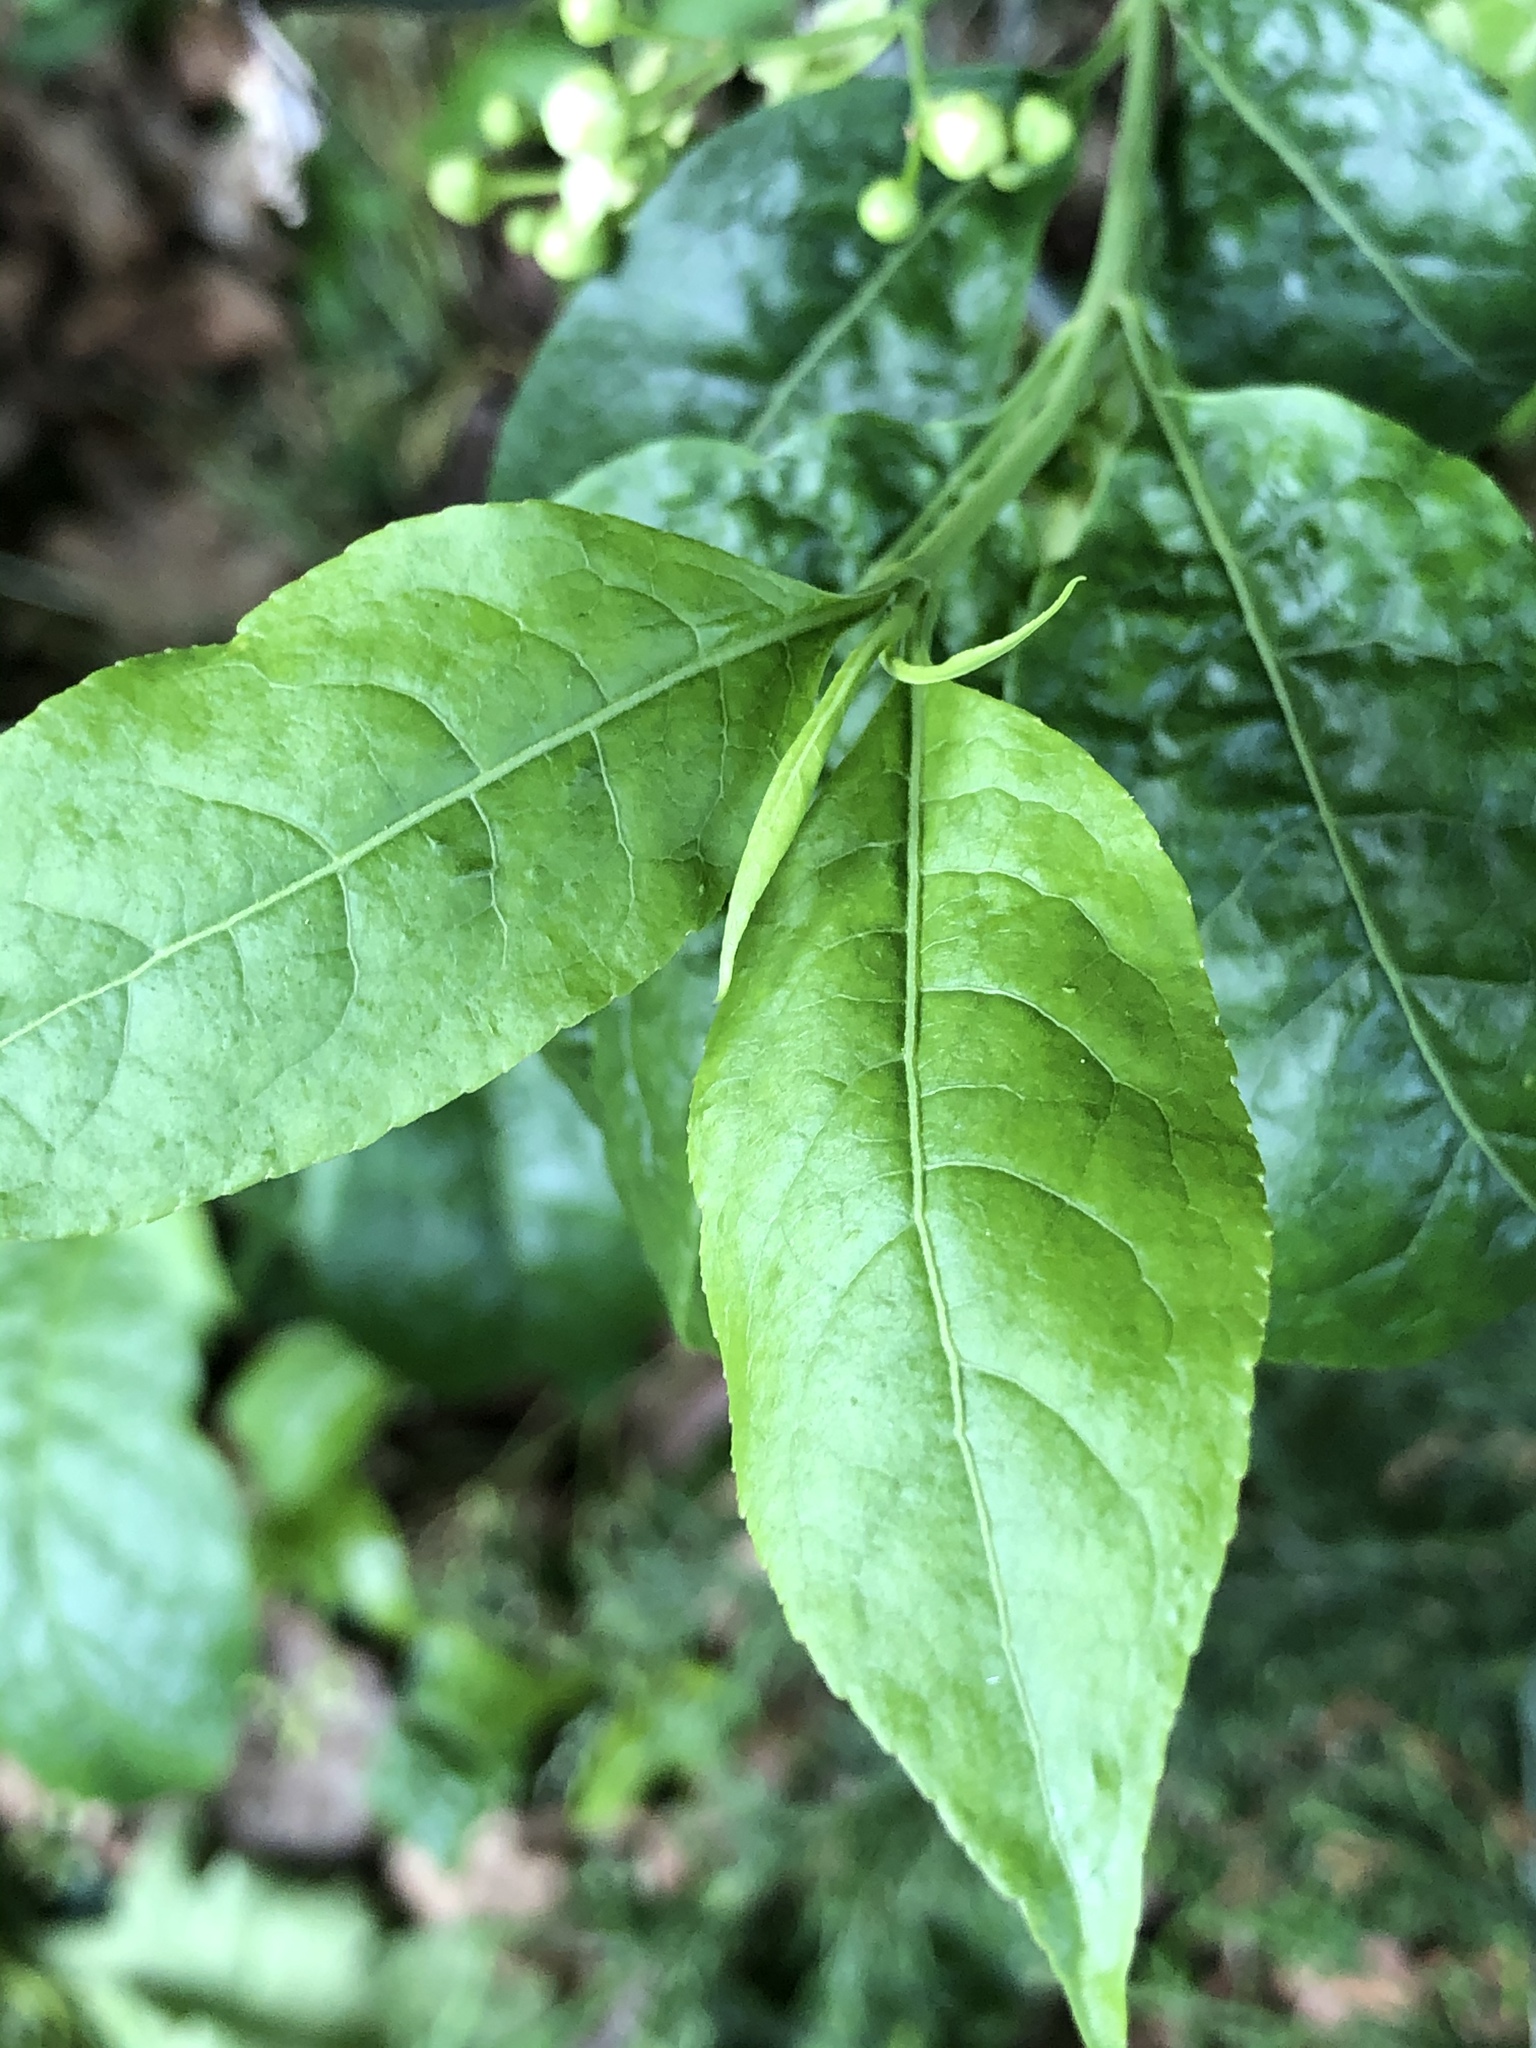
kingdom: Plantae
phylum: Tracheophyta
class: Magnoliopsida
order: Celastrales
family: Celastraceae
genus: Euonymus
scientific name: Euonymus europaeus
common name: Spindle
